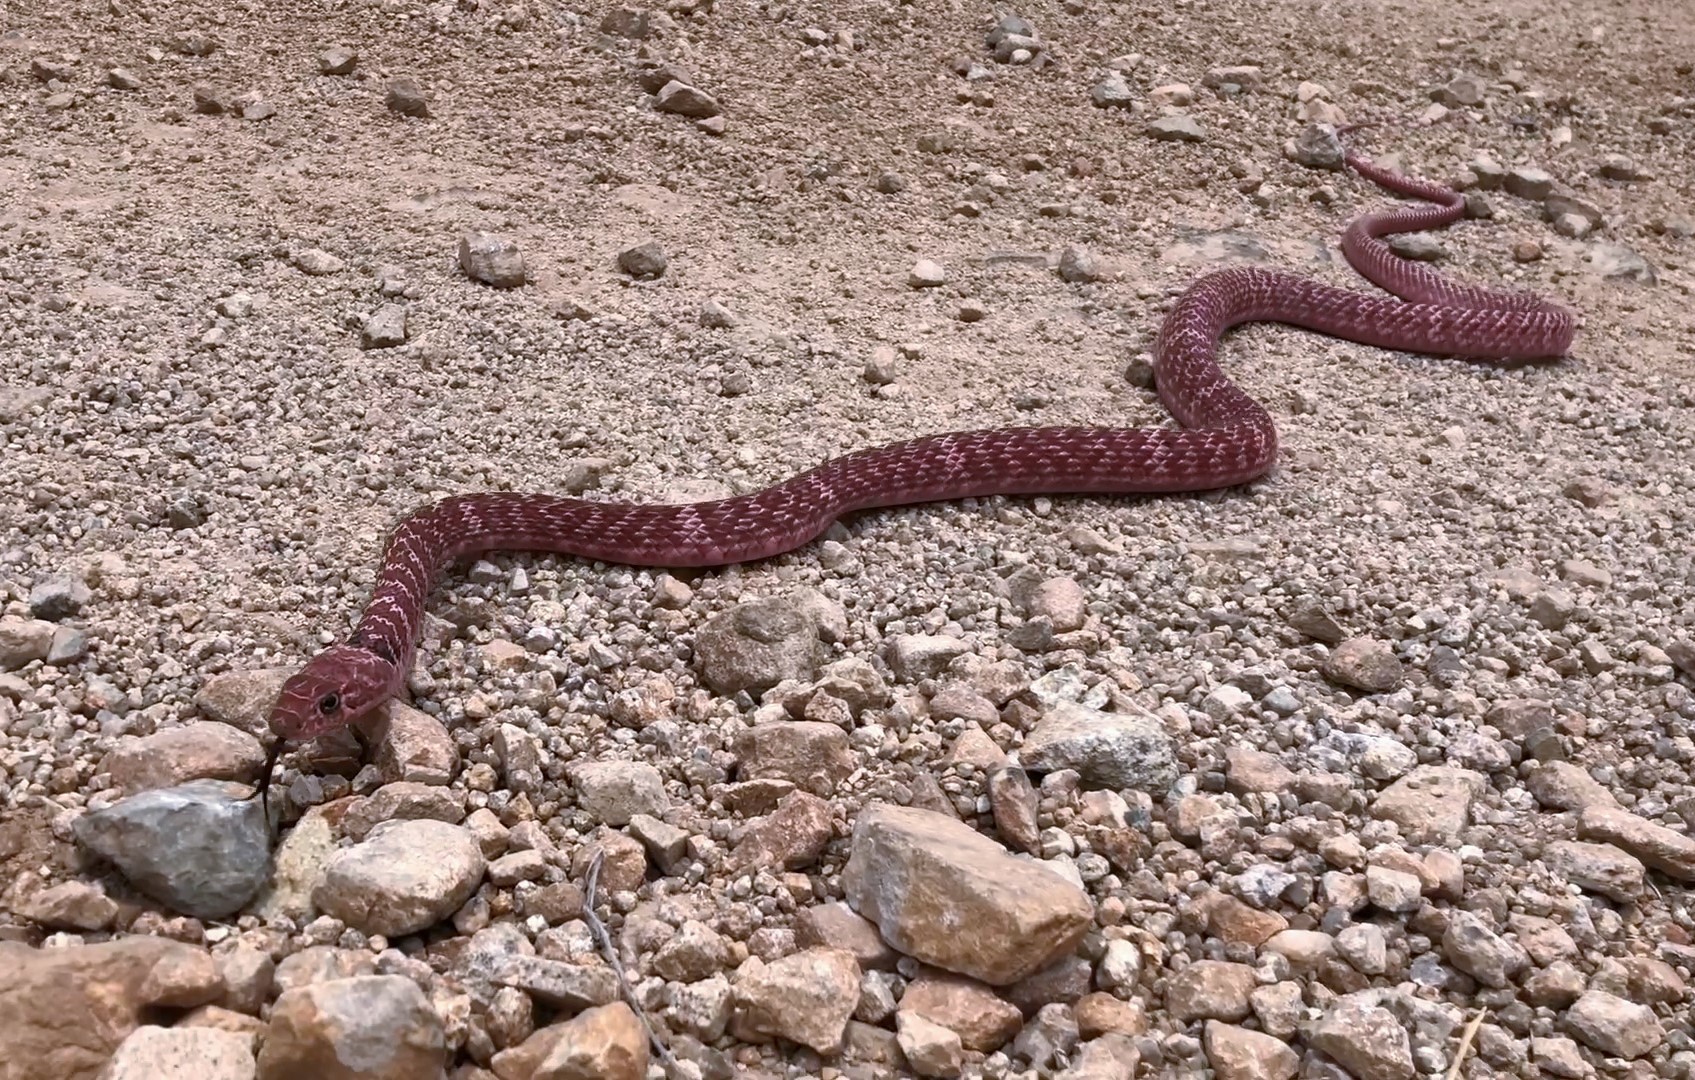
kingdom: Animalia
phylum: Chordata
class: Squamata
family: Colubridae
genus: Masticophis
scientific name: Masticophis flagellum
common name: Coachwhip
